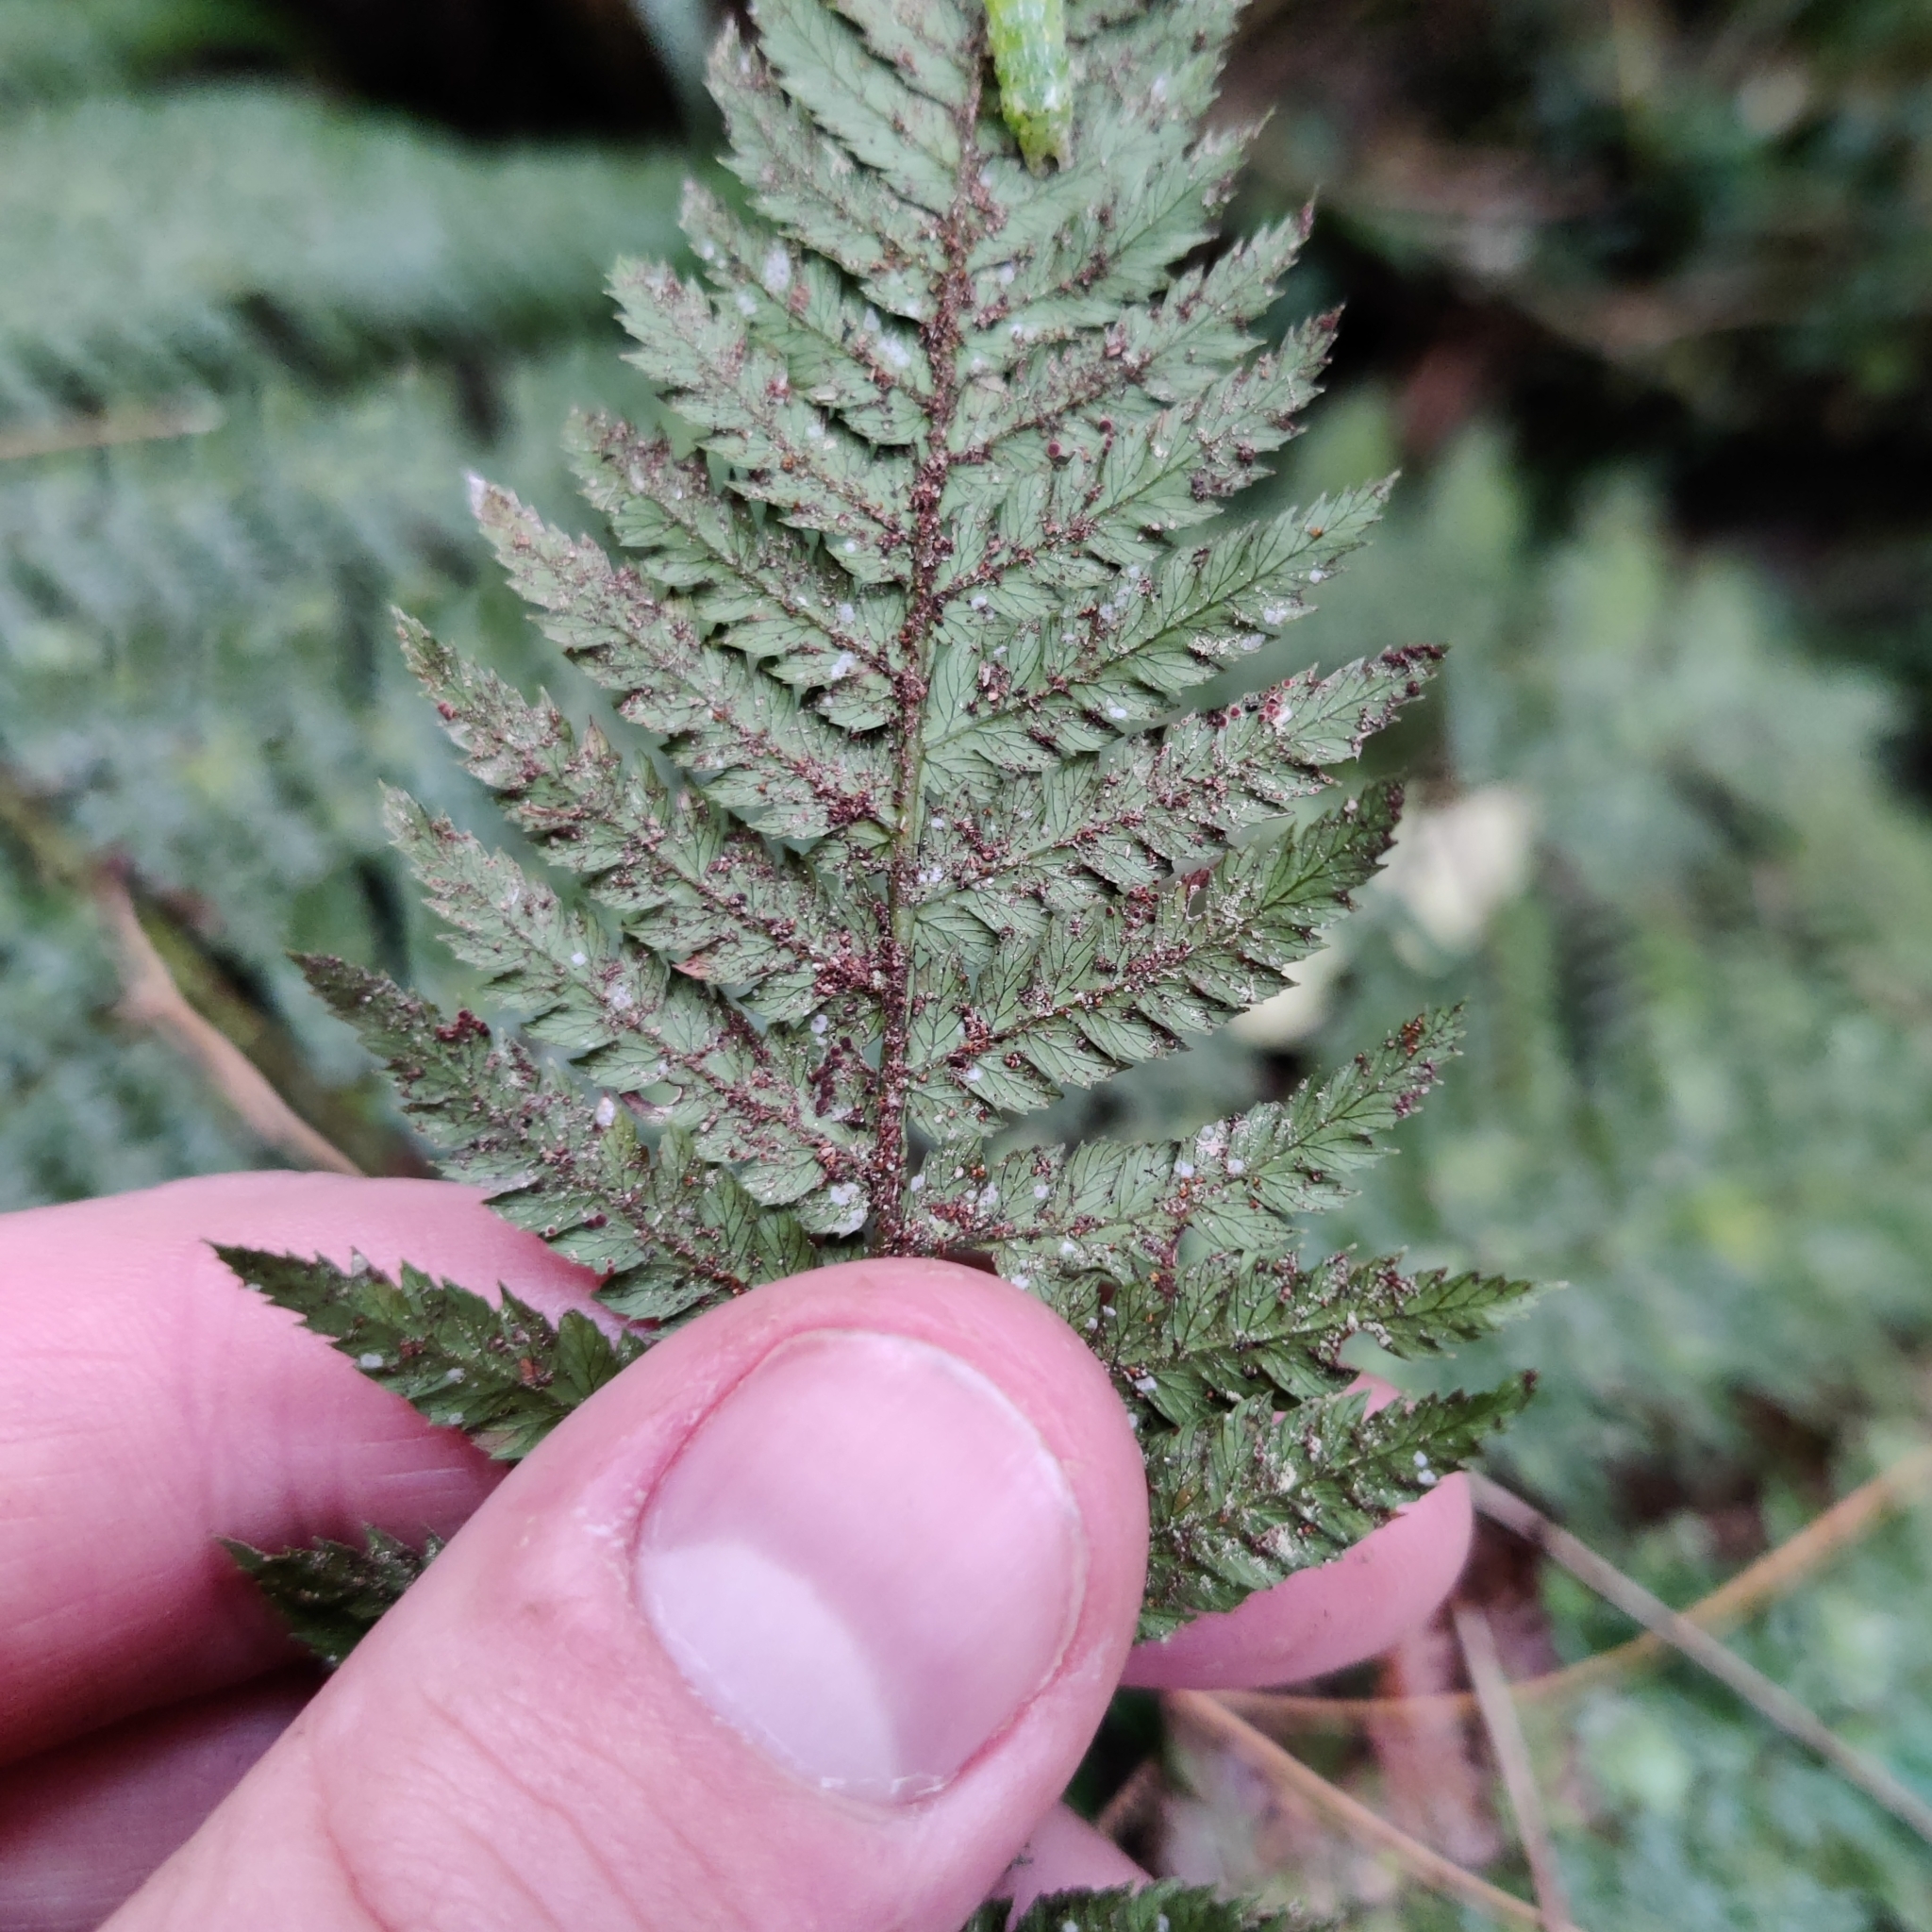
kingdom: Plantae
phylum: Tracheophyta
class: Polypodiopsida
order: Cyatheales
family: Dicksoniaceae
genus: Dicksonia
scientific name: Dicksonia fibrosa
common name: Golden tree fern
